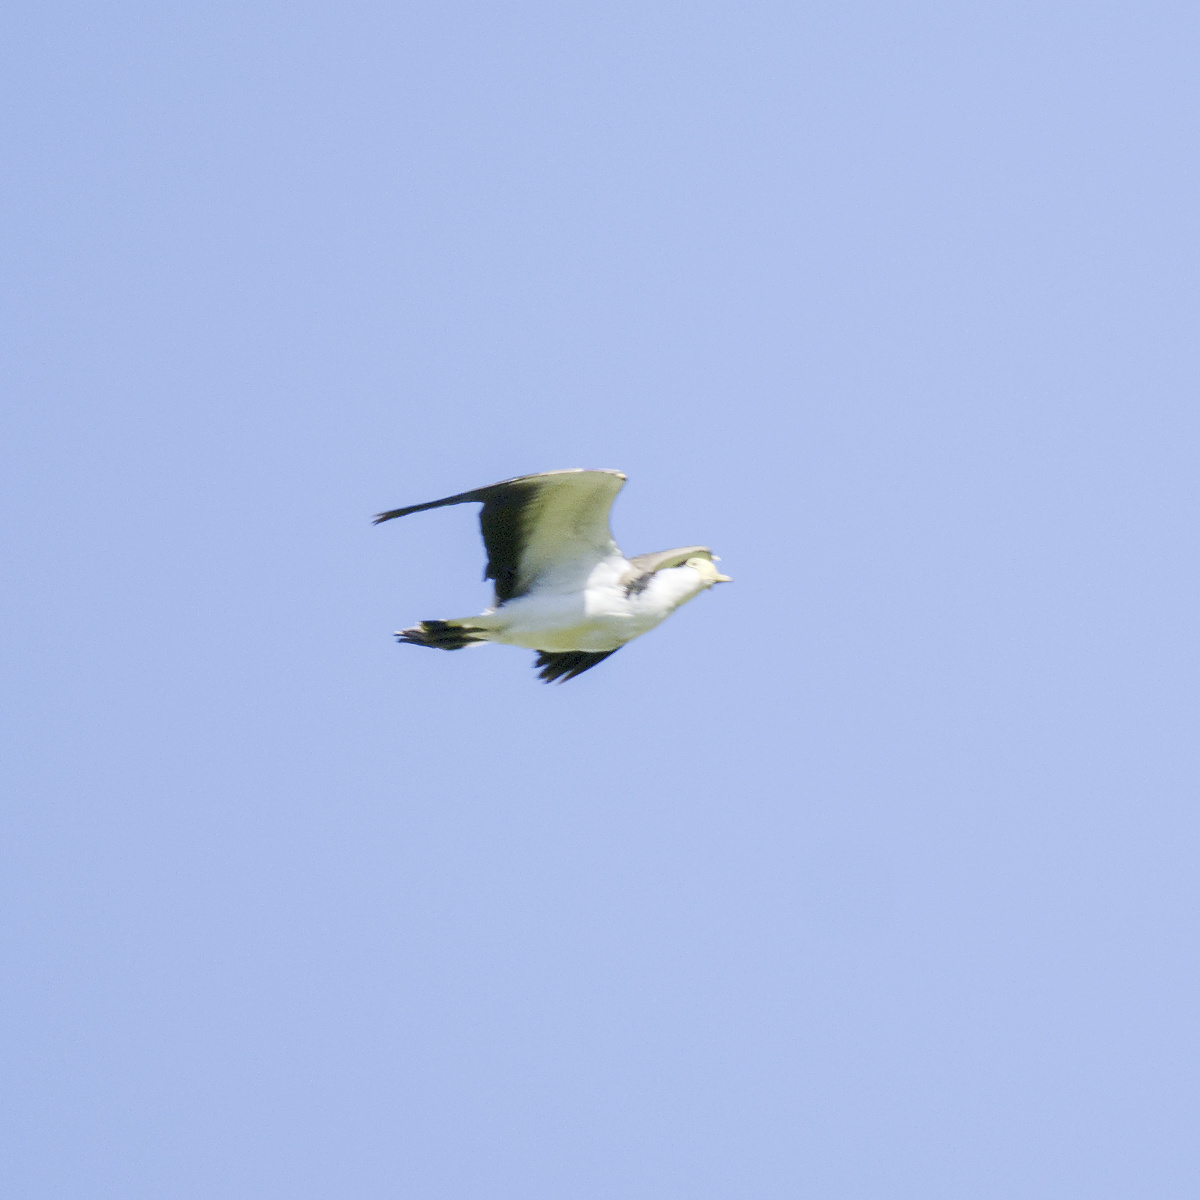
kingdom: Animalia
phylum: Chordata
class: Aves
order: Charadriiformes
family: Charadriidae
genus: Vanellus
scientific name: Vanellus miles
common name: Masked lapwing
